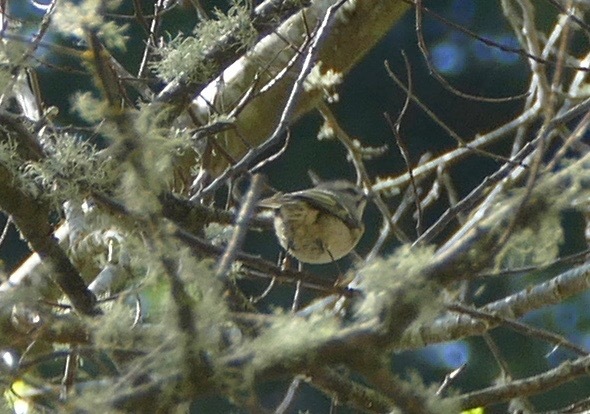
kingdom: Animalia
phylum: Chordata
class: Aves
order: Passeriformes
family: Regulidae
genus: Regulus
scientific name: Regulus satrapa
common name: Golden-crowned kinglet
